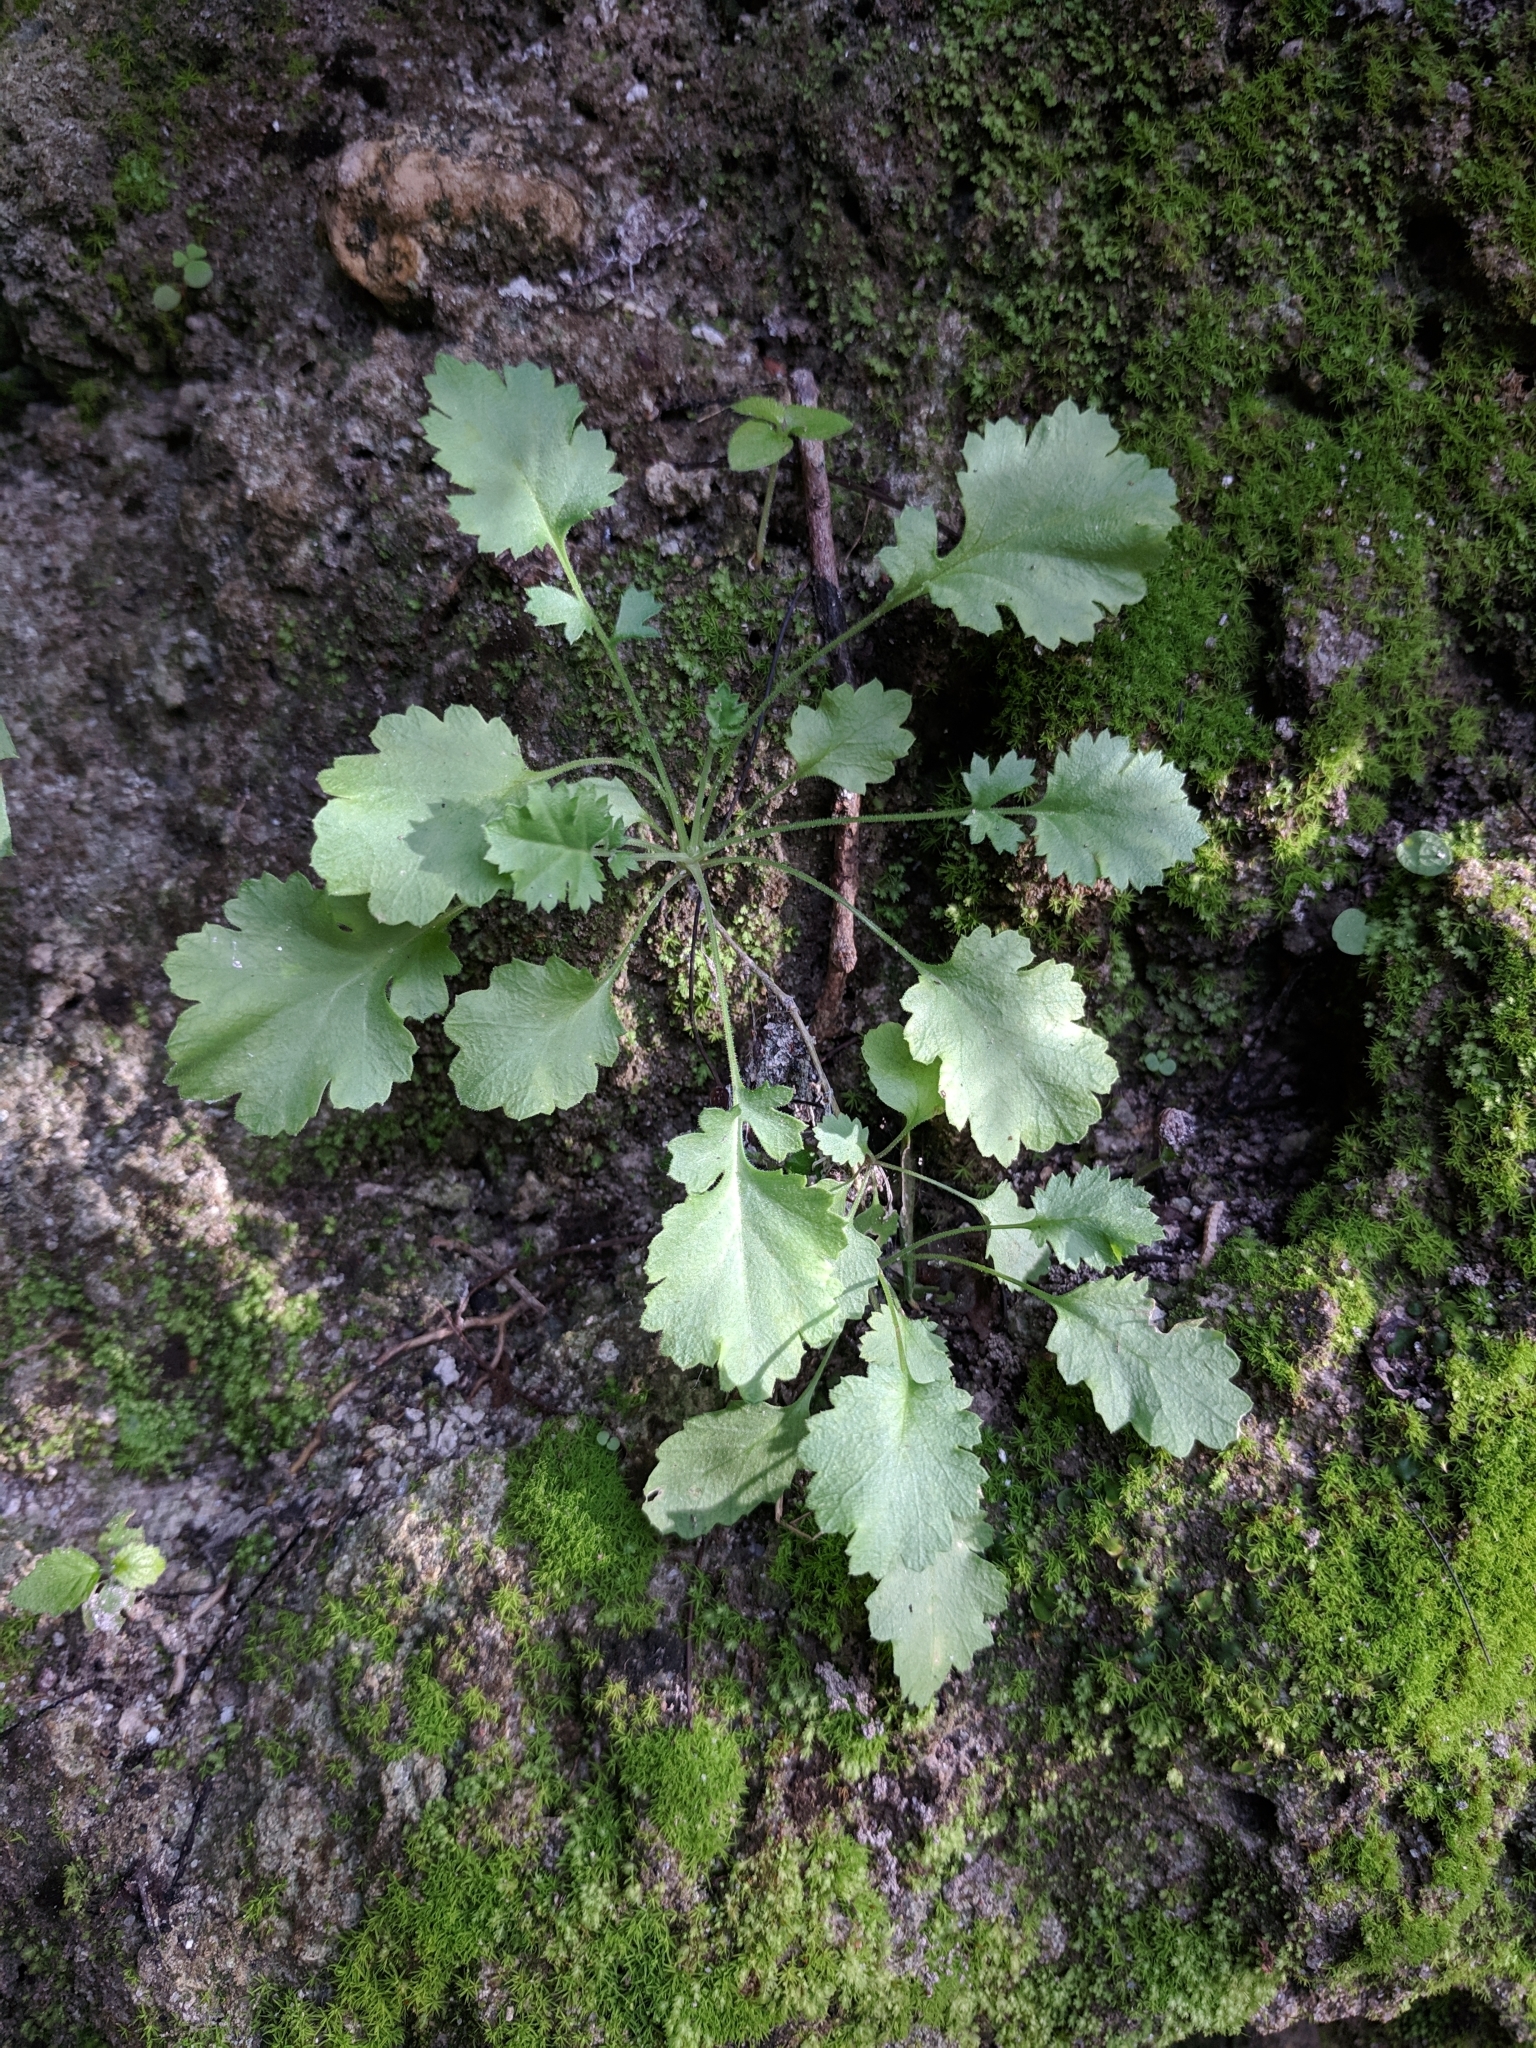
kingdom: Plantae
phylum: Tracheophyta
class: Magnoliopsida
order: Ericales
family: Polemoniaceae
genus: Giliastrum
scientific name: Giliastrum incisum
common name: Splitleaf gilia
